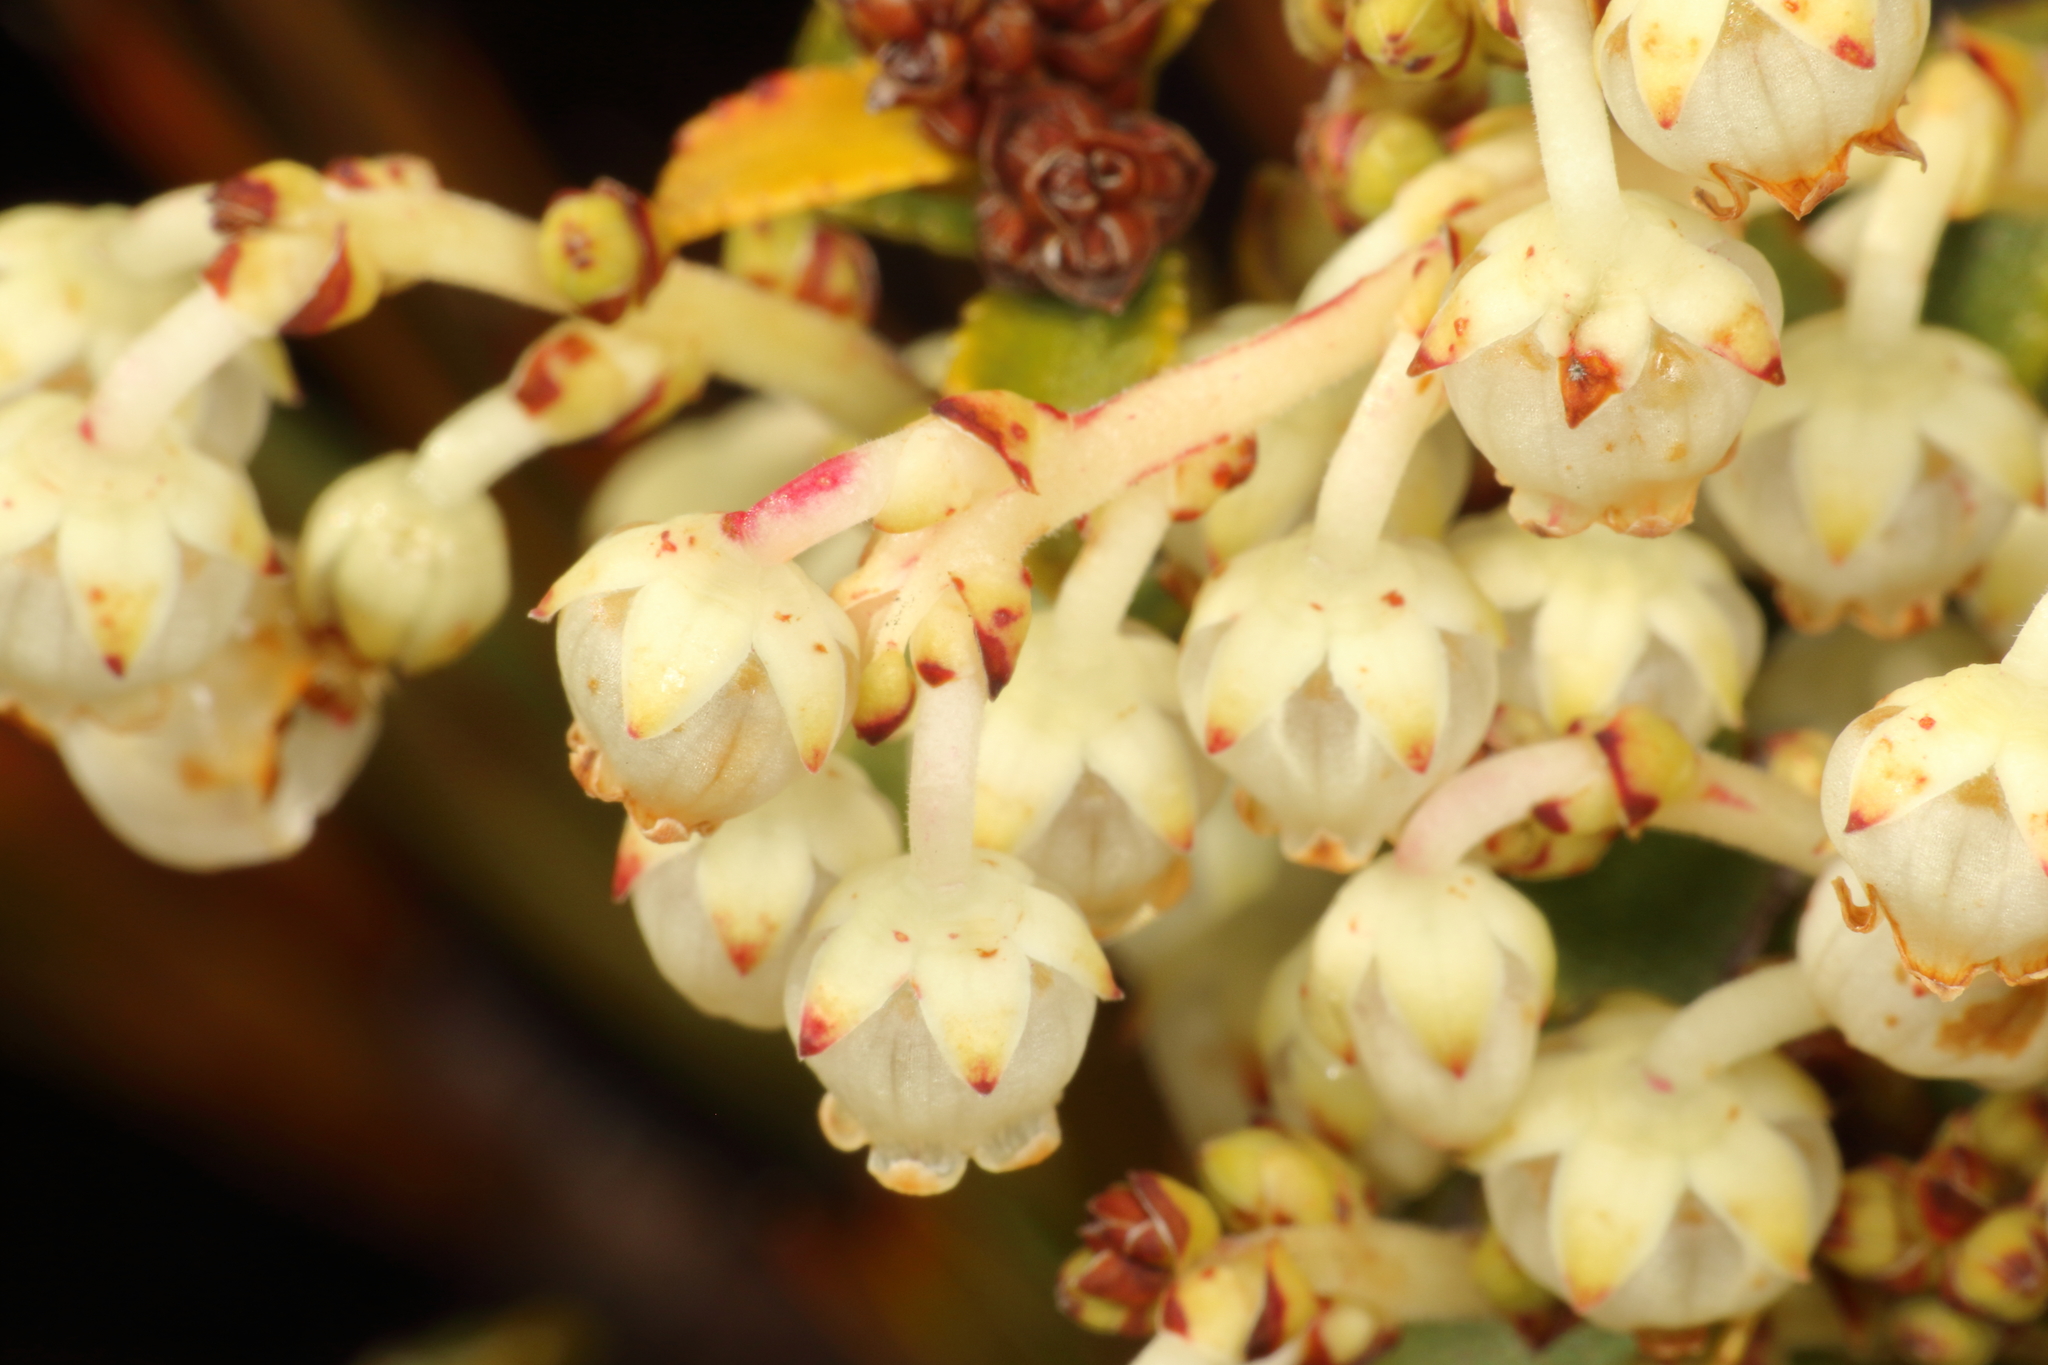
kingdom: Plantae
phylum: Tracheophyta
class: Magnoliopsida
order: Ericales
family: Ericaceae
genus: Gaultheria
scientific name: Gaultheria crassa
